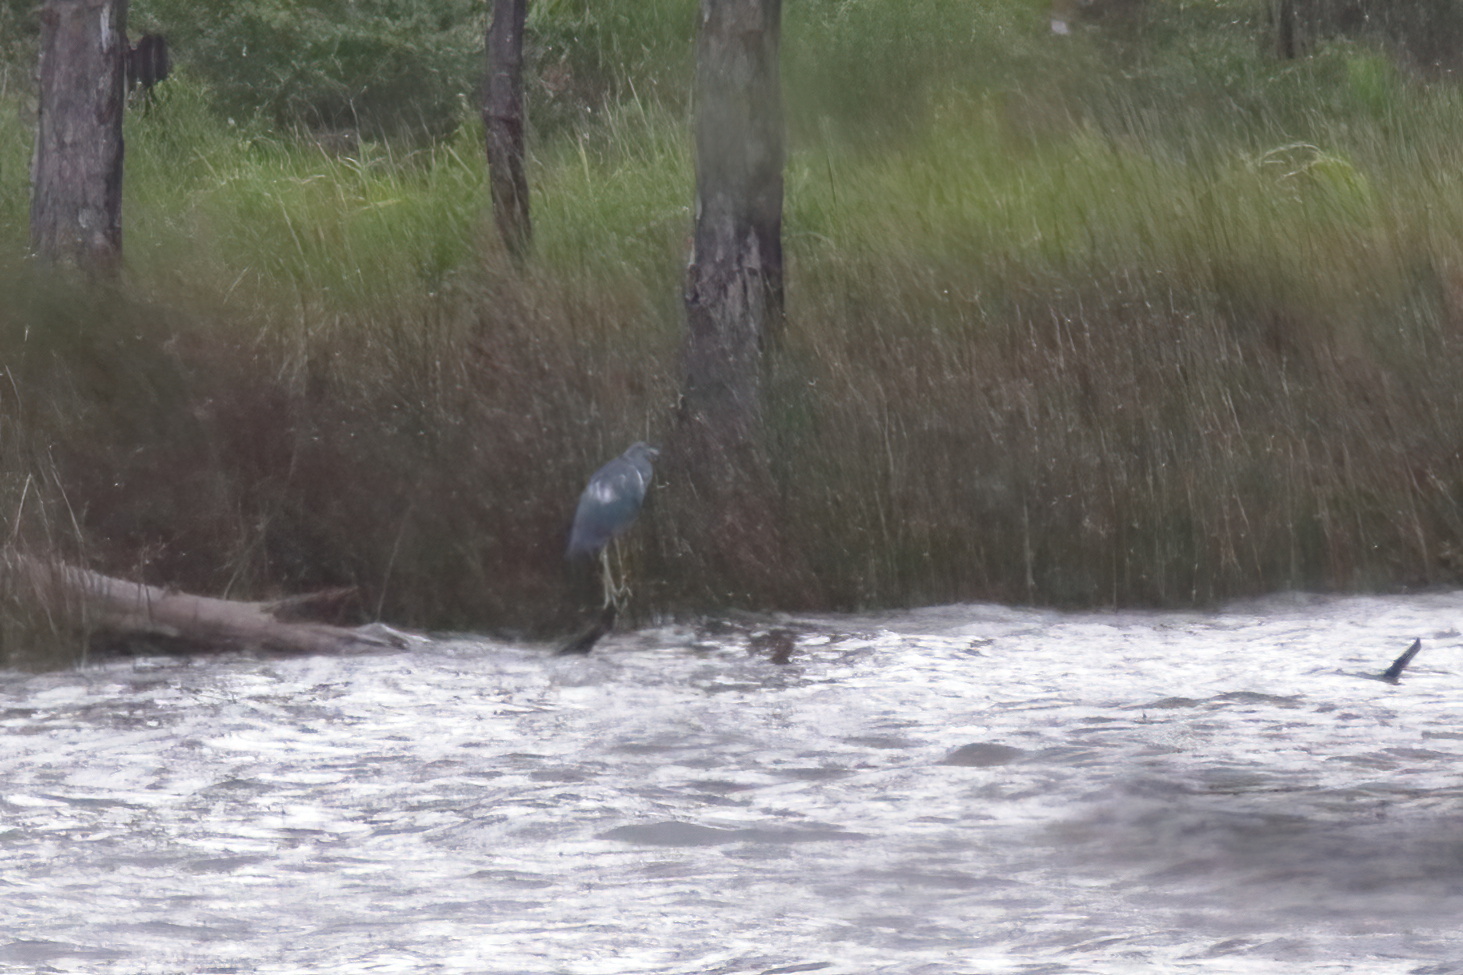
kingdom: Animalia
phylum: Chordata
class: Aves
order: Pelecaniformes
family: Ardeidae
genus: Egretta
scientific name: Egretta tricolor
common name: Tricolored heron
